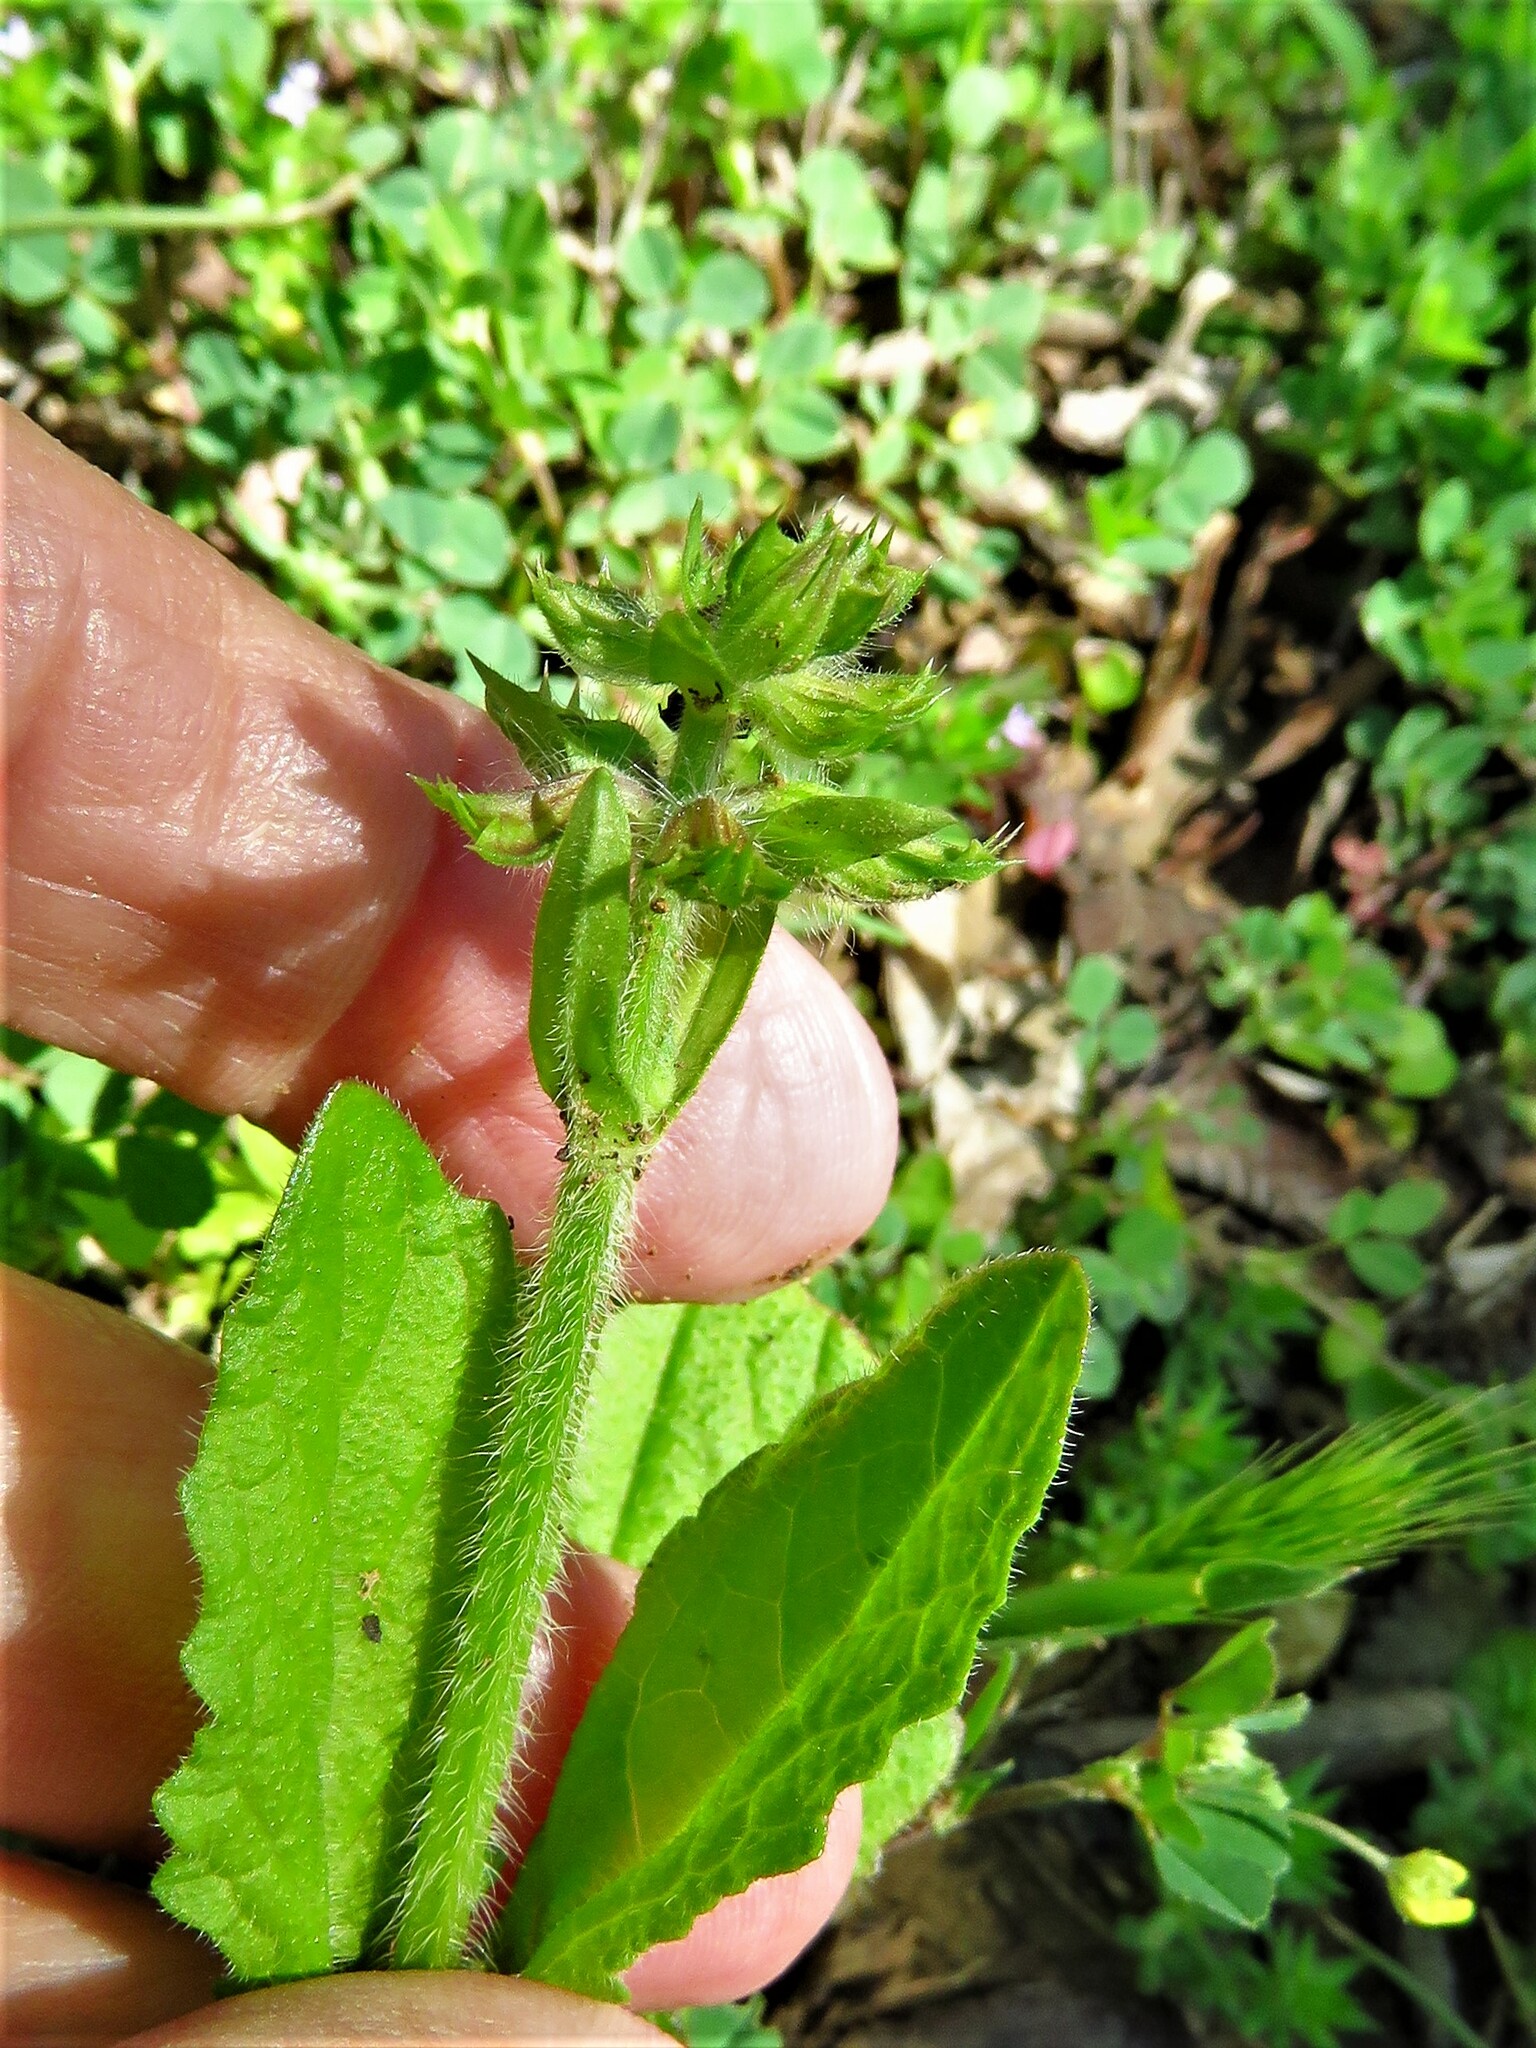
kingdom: Plantae
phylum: Tracheophyta
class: Magnoliopsida
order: Lamiales
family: Lamiaceae
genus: Salvia
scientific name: Salvia lyrata
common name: Cancerweed
